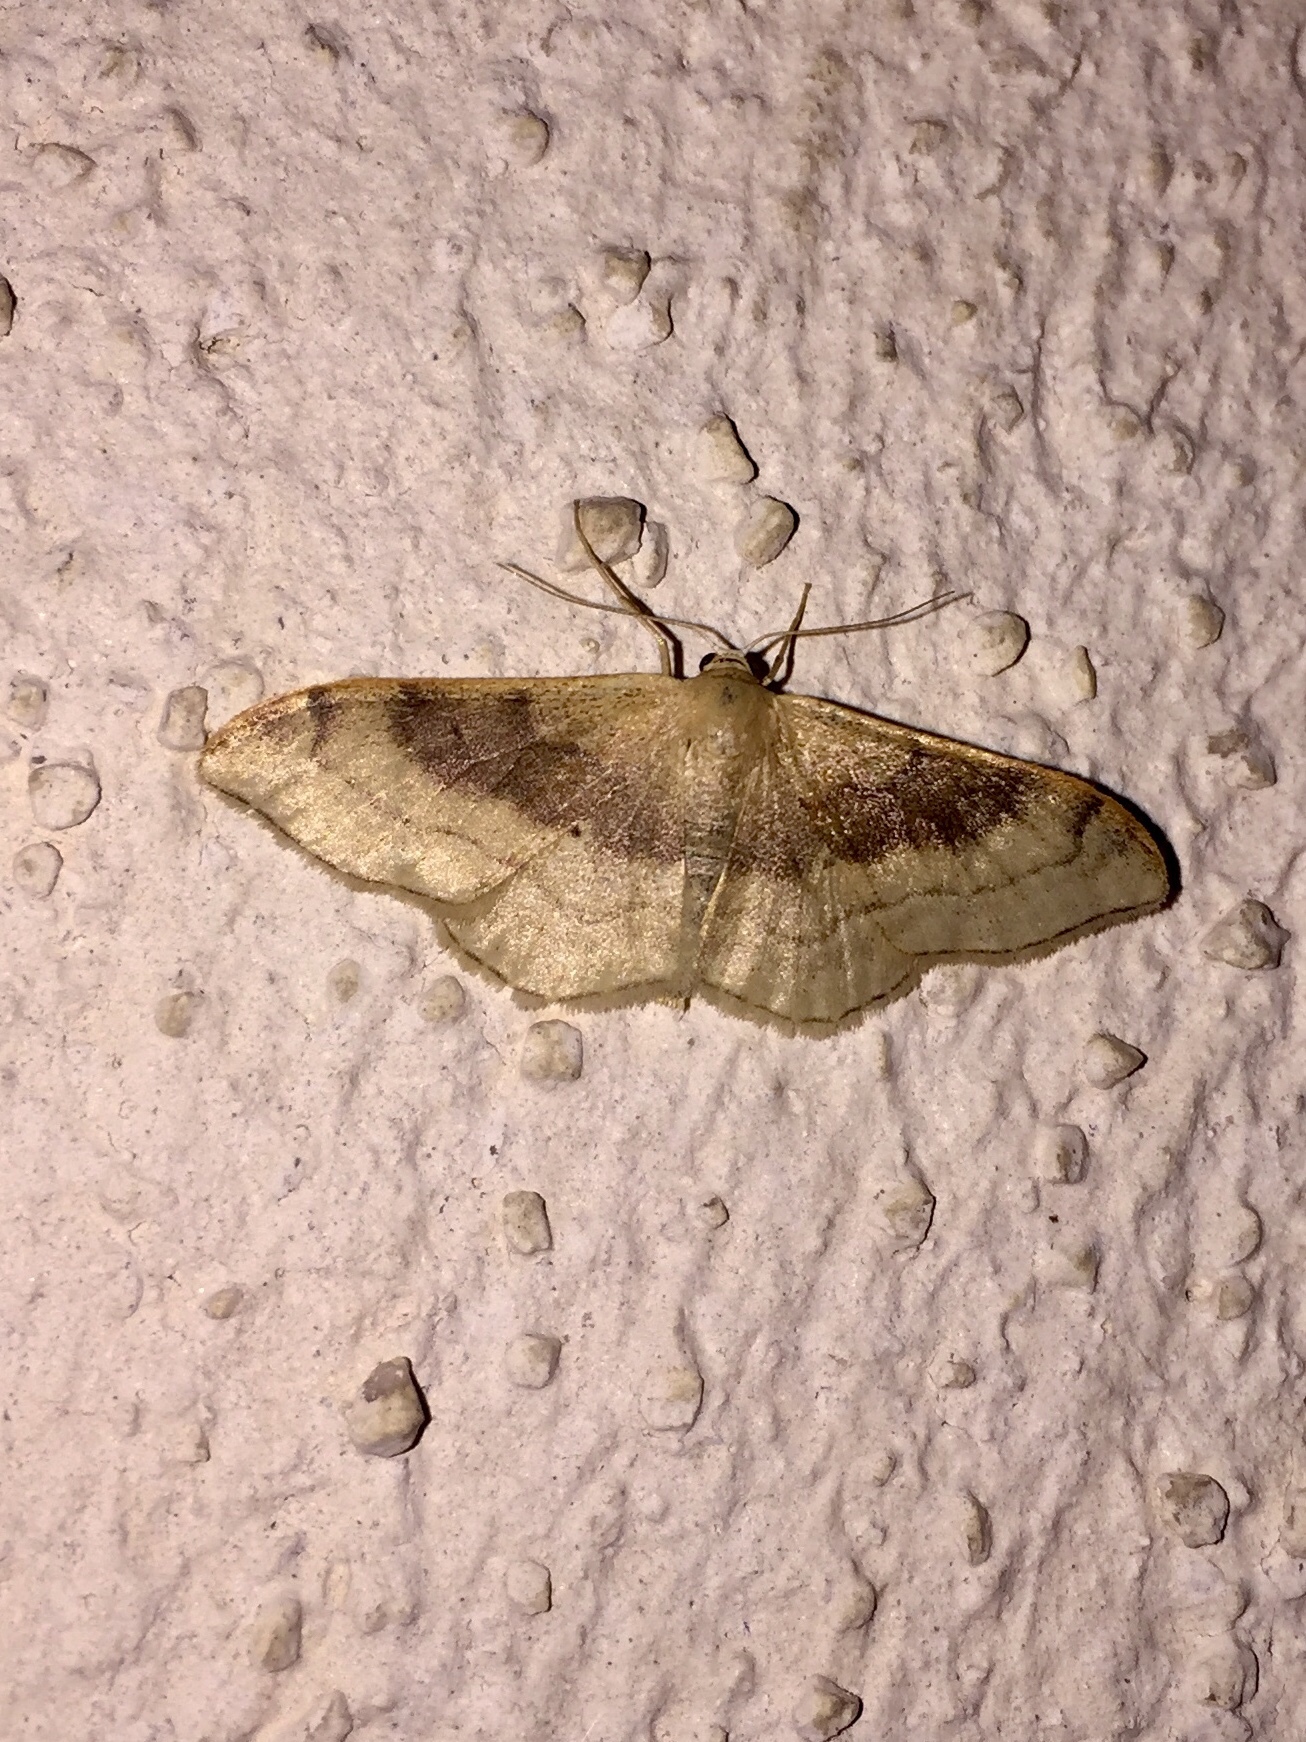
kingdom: Animalia
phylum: Arthropoda
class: Insecta
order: Lepidoptera
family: Geometridae
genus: Idaea
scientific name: Idaea degeneraria
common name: Portland ribbon wave
